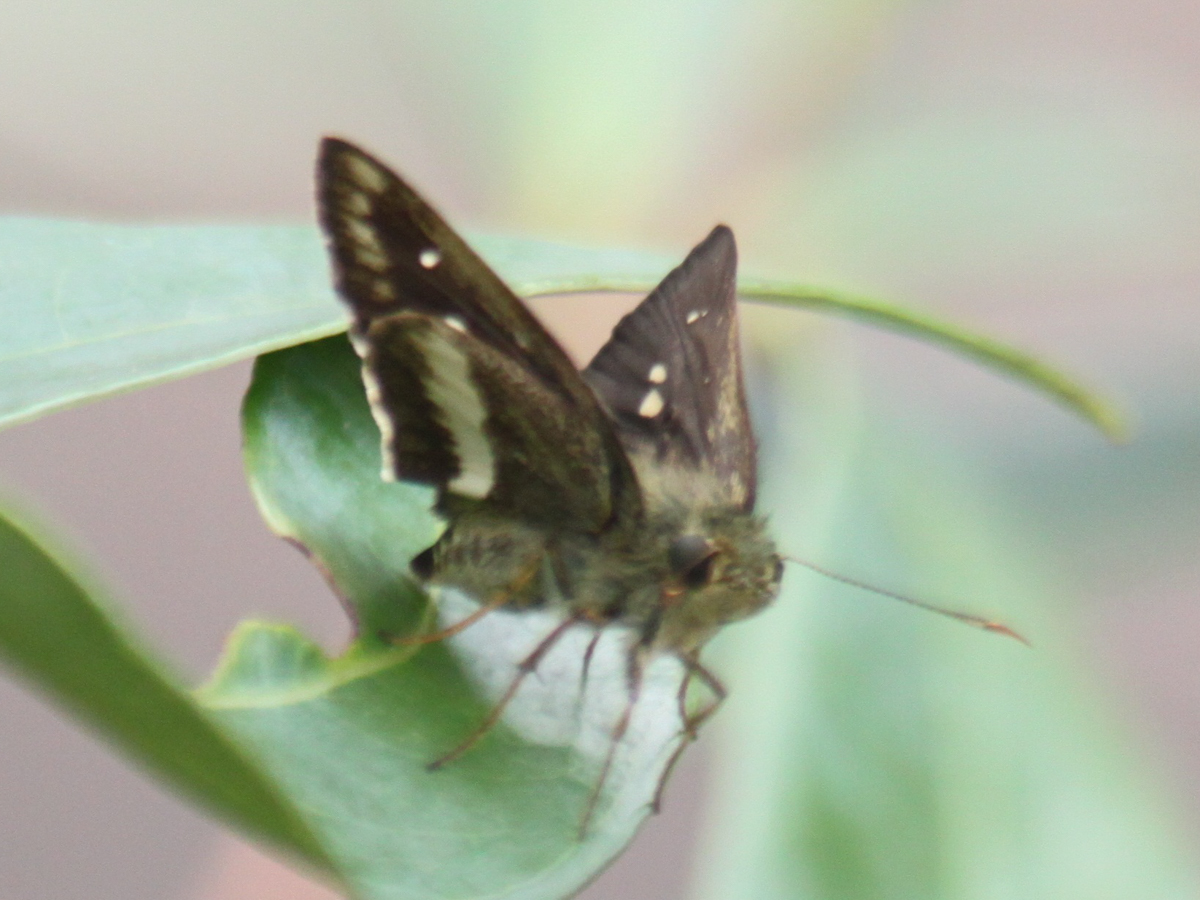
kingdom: Animalia
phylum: Arthropoda
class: Insecta
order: Lepidoptera
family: Hesperiidae
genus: Halpe
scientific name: Halpe zola
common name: Long-banded ace
